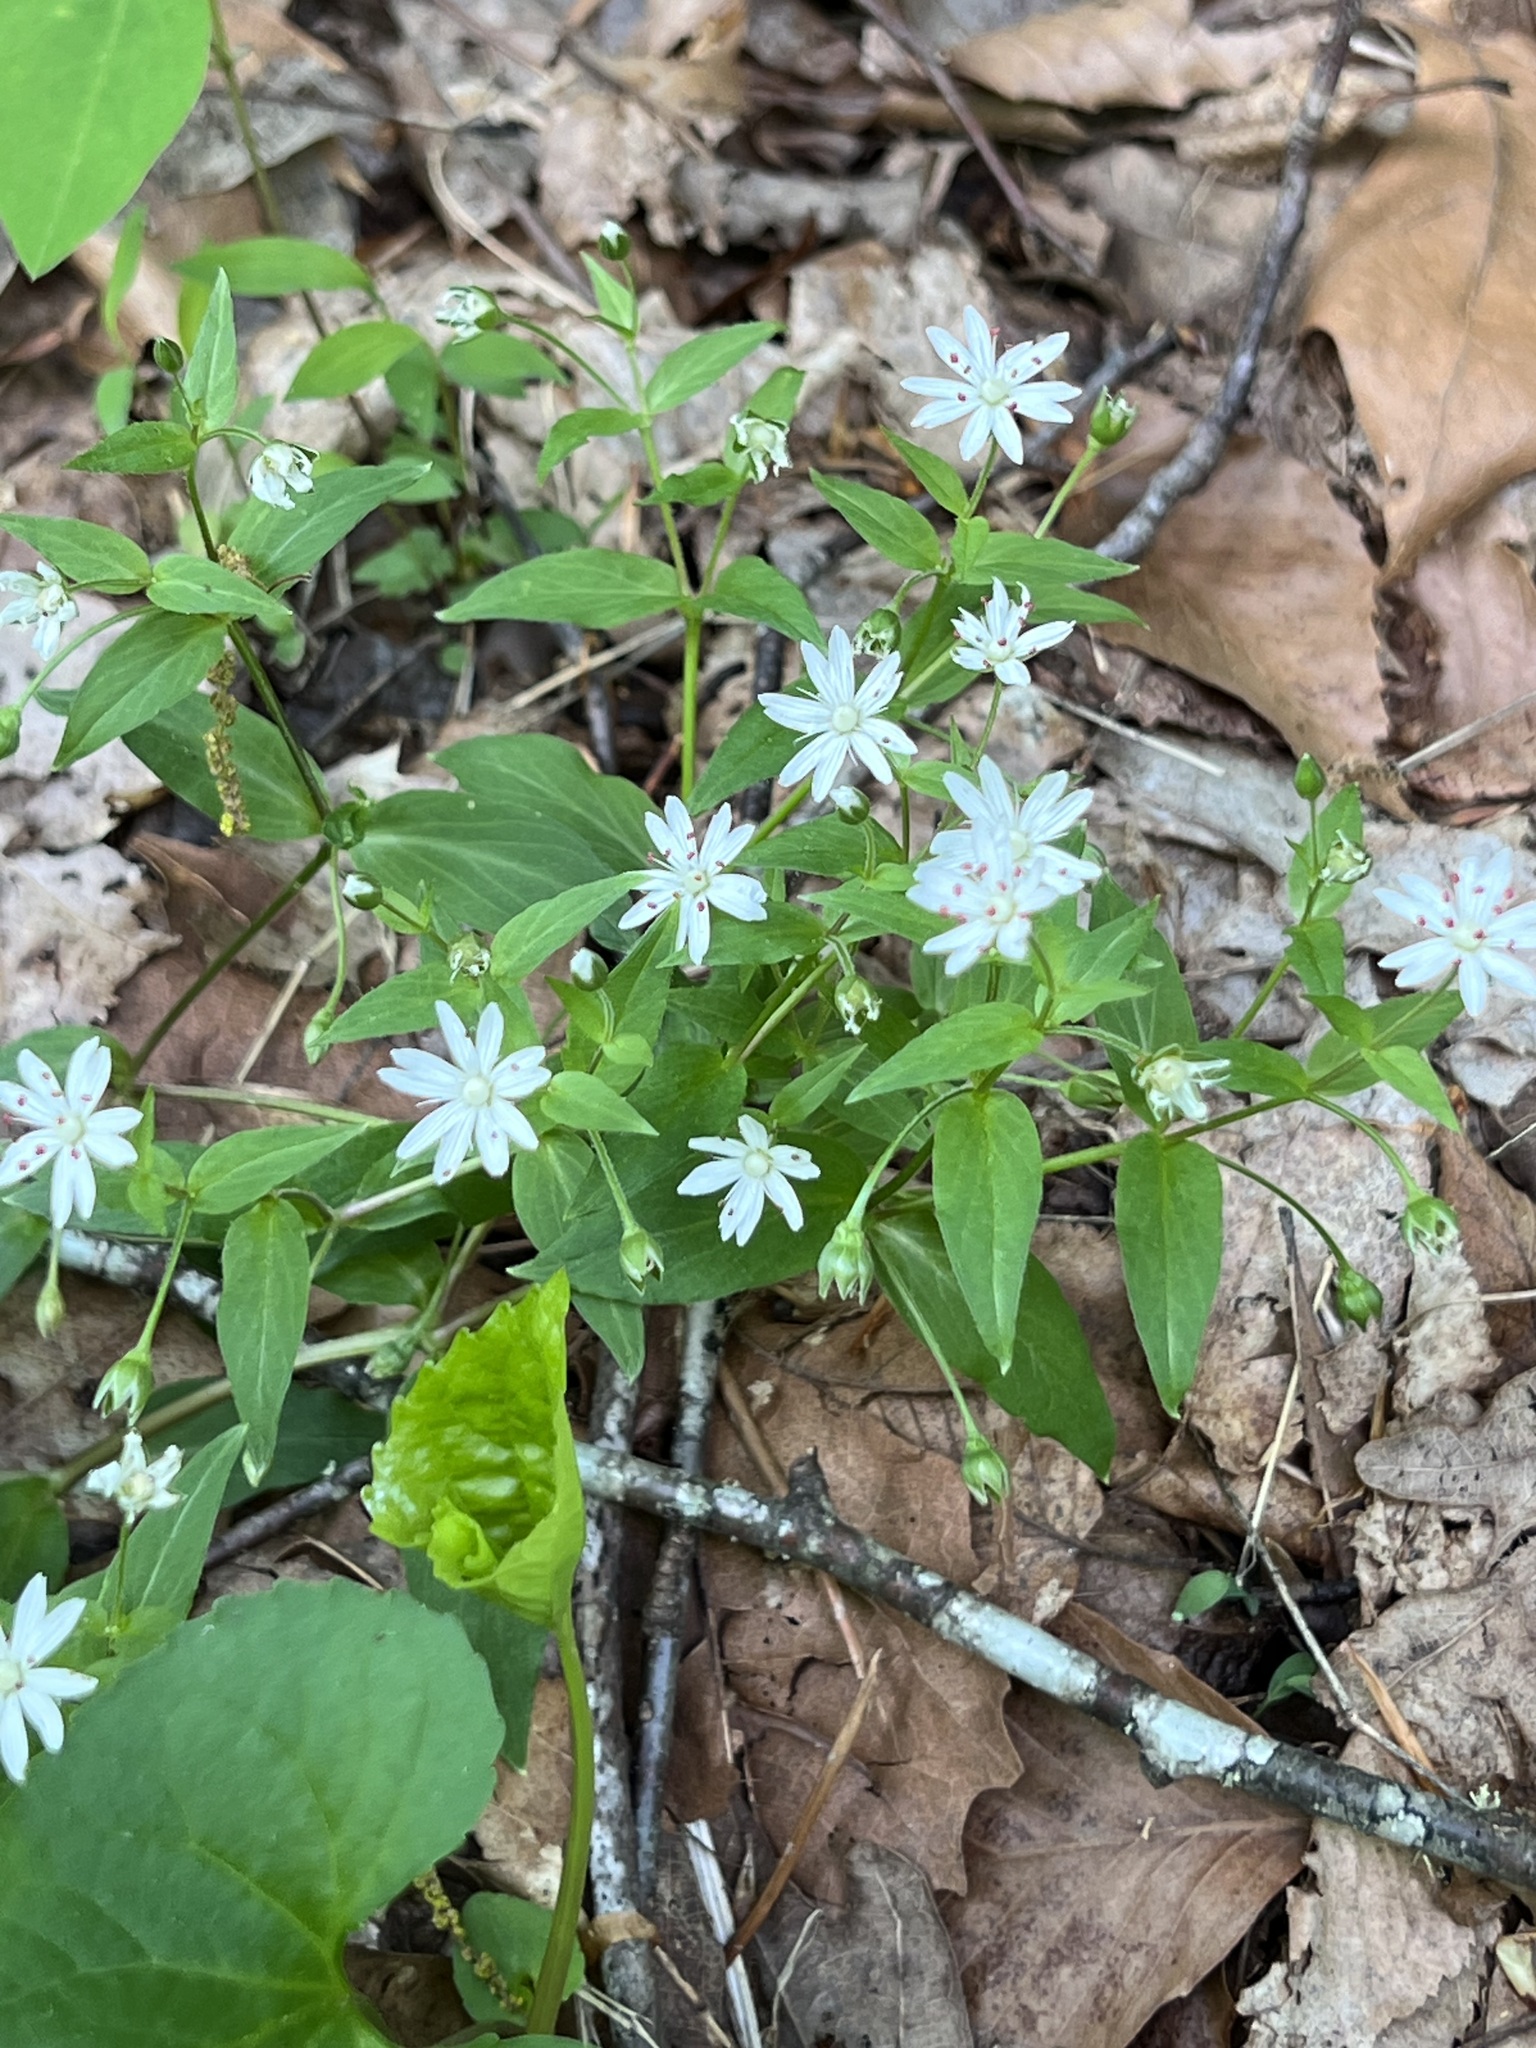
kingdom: Plantae
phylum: Tracheophyta
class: Magnoliopsida
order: Caryophyllales
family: Caryophyllaceae
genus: Stellaria
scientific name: Stellaria pubera
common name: Star chickweed
